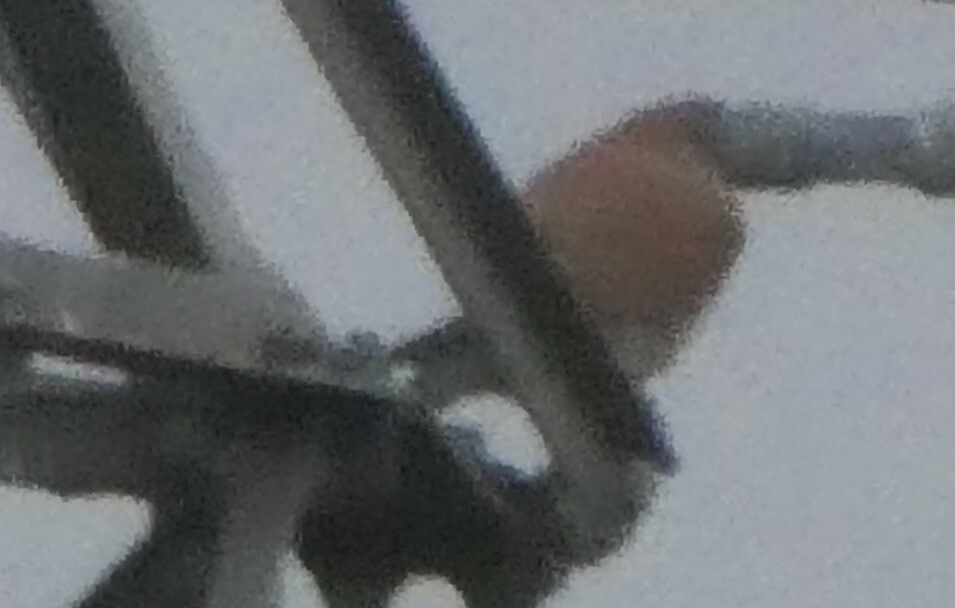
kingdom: Animalia
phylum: Chordata
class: Aves
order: Falconiformes
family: Falconidae
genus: Falco
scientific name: Falco tinnunculus
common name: Common kestrel
